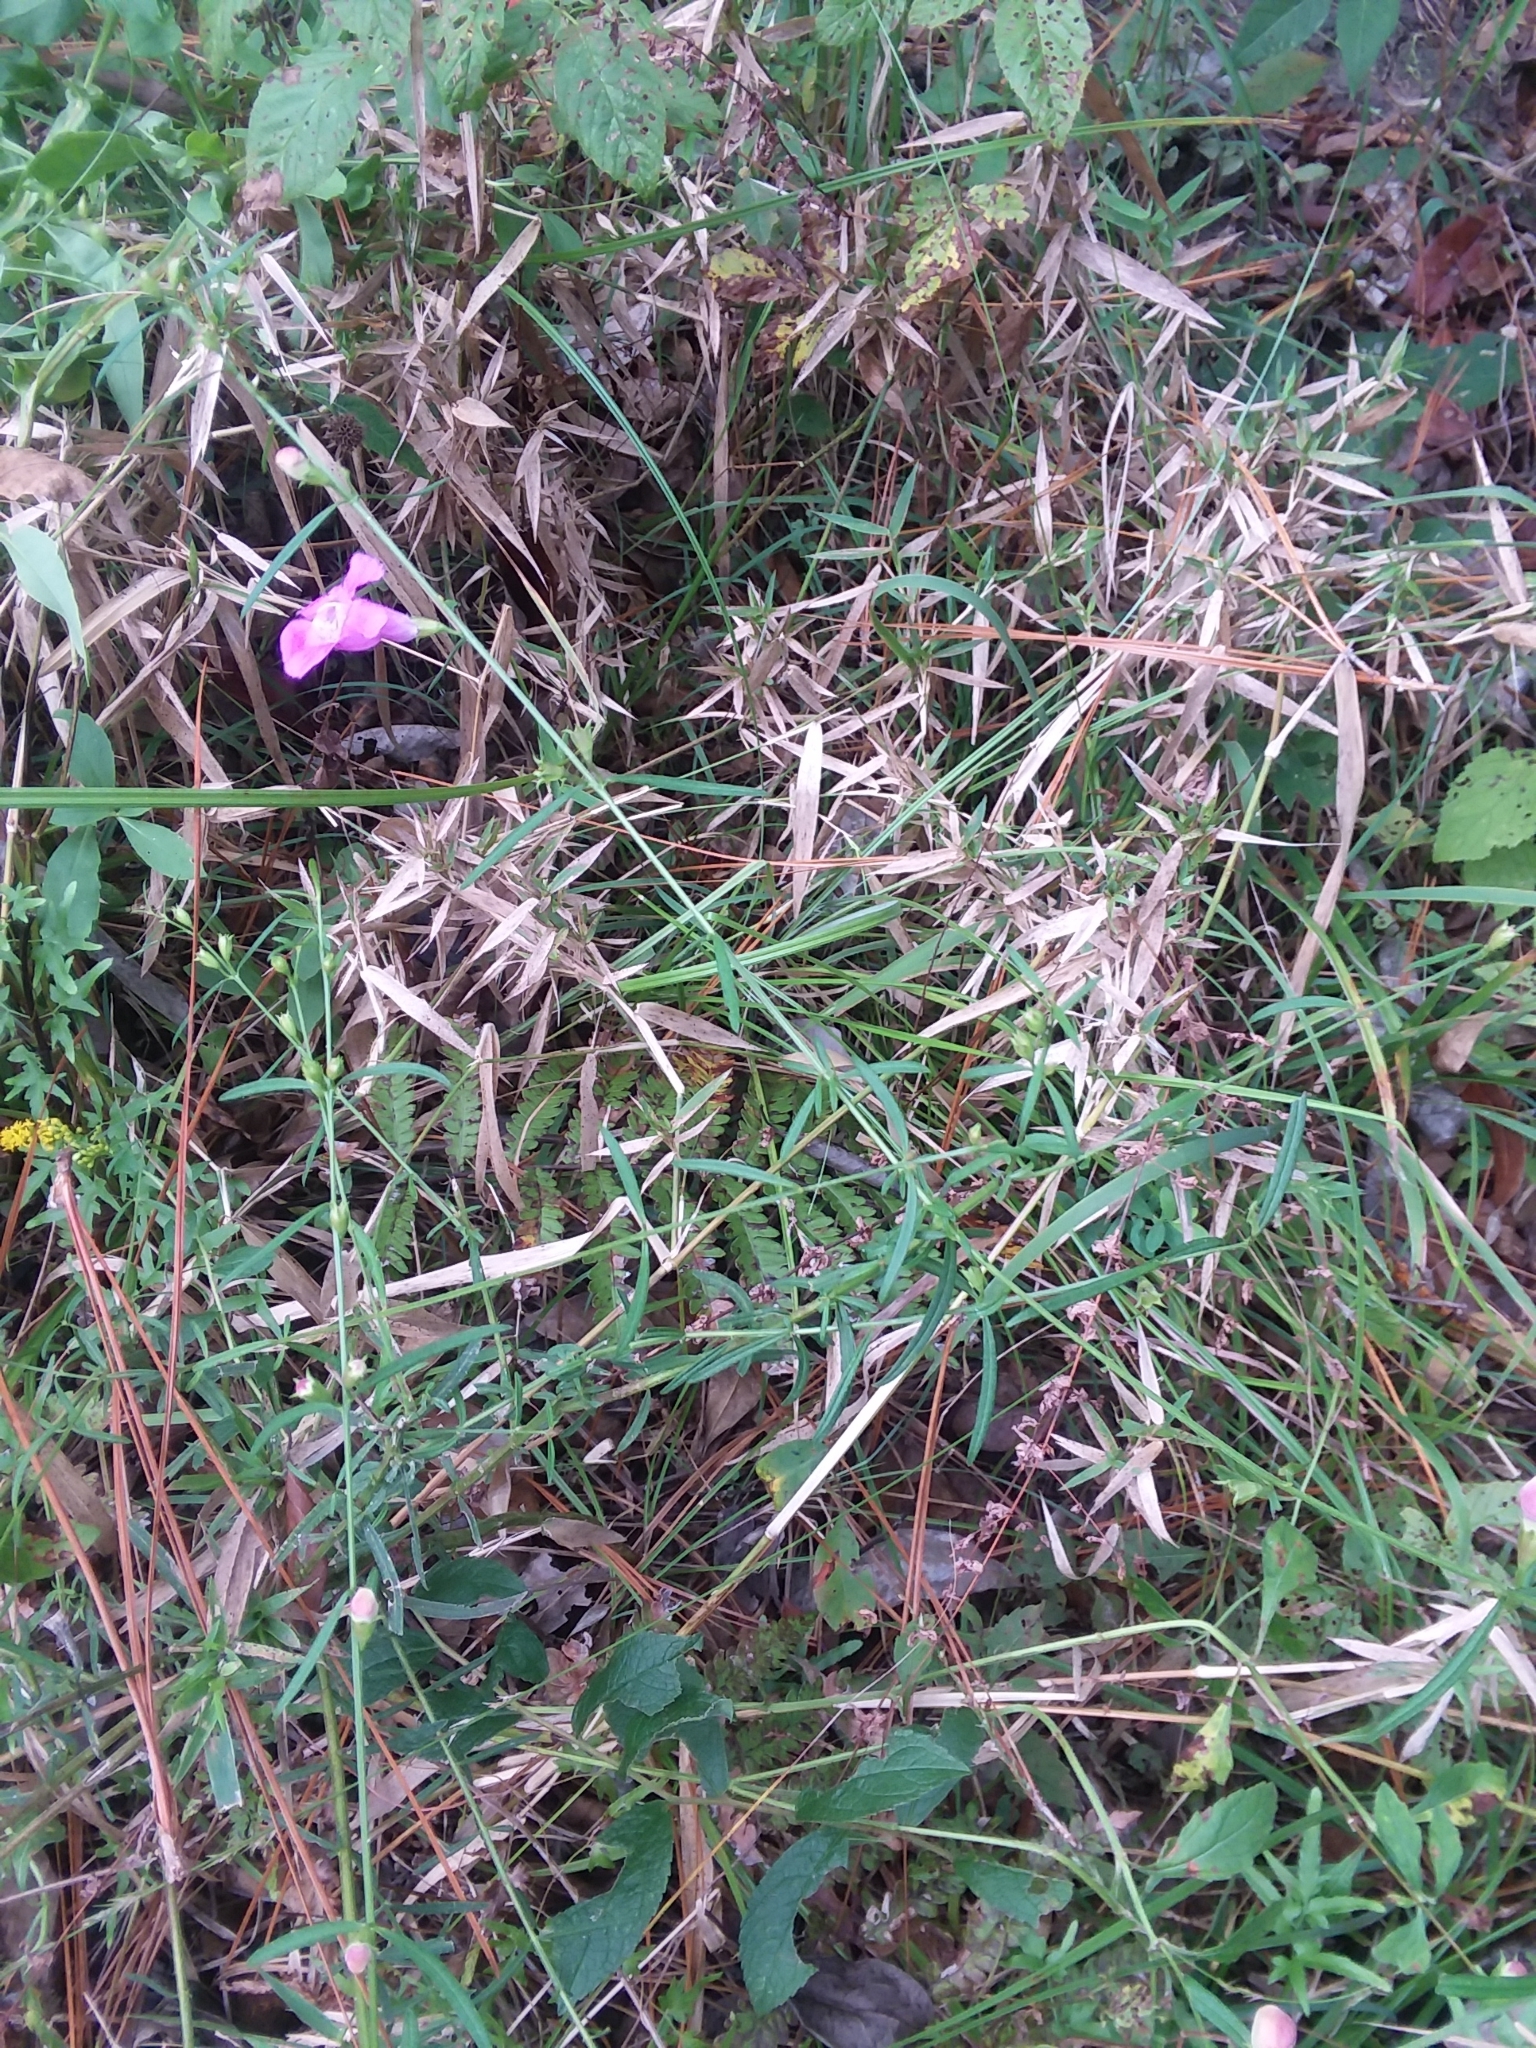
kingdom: Plantae
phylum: Tracheophyta
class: Magnoliopsida
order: Lamiales
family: Orobanchaceae
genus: Agalinis
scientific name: Agalinis purpurea
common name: Purple false foxglove
